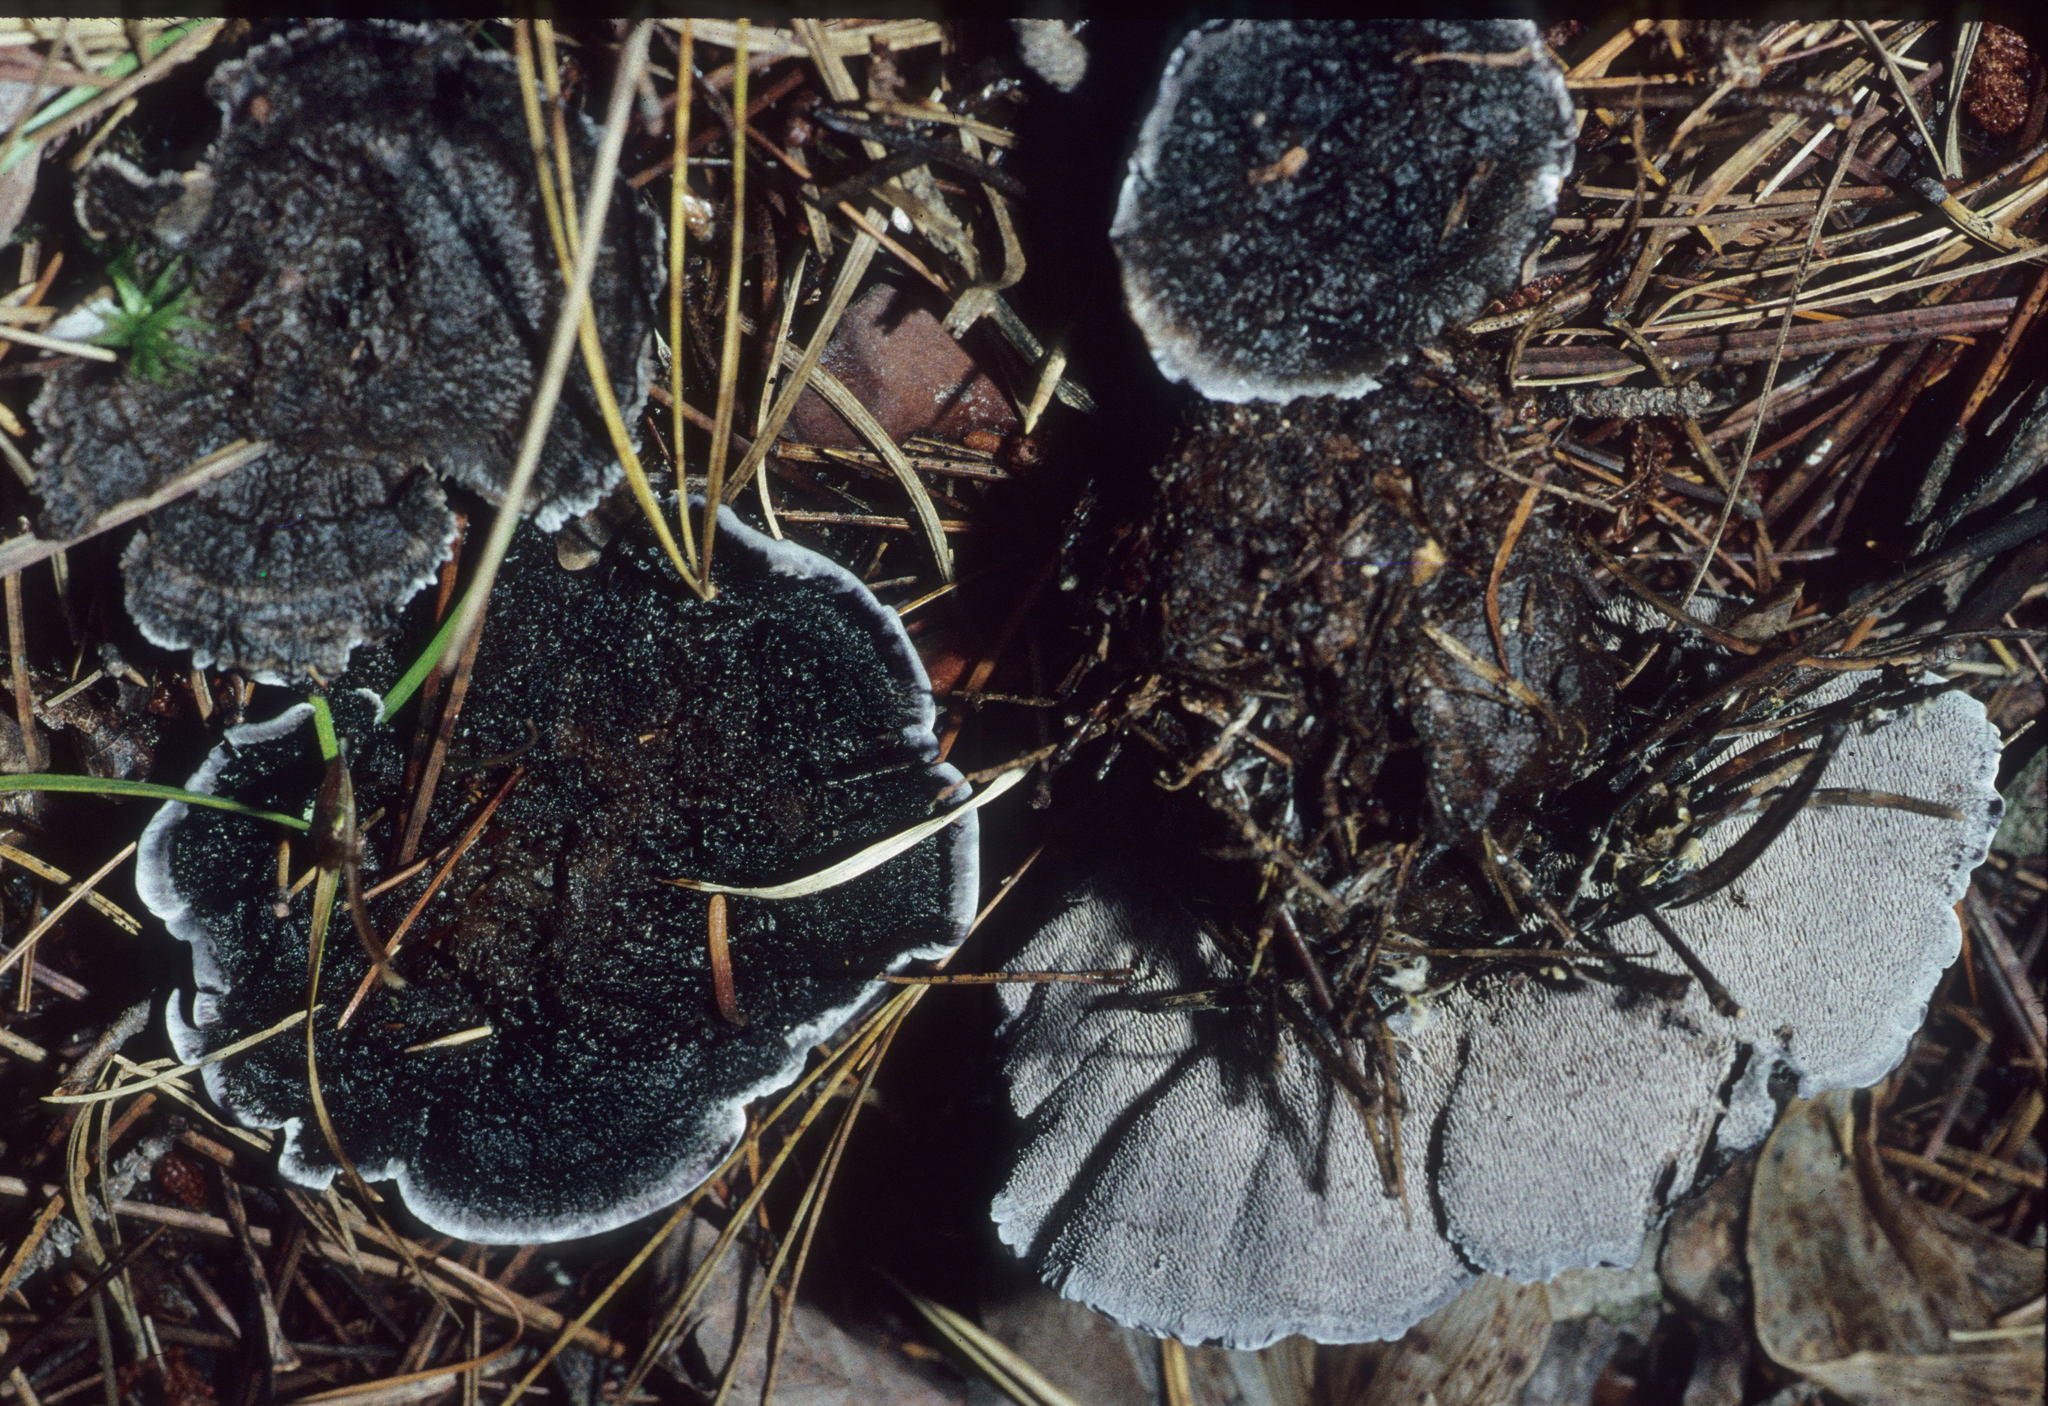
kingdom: Fungi
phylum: Basidiomycota
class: Agaricomycetes
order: Thelephorales
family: Thelephoraceae
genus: Phellodon
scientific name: Phellodon niger
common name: Black tooth
